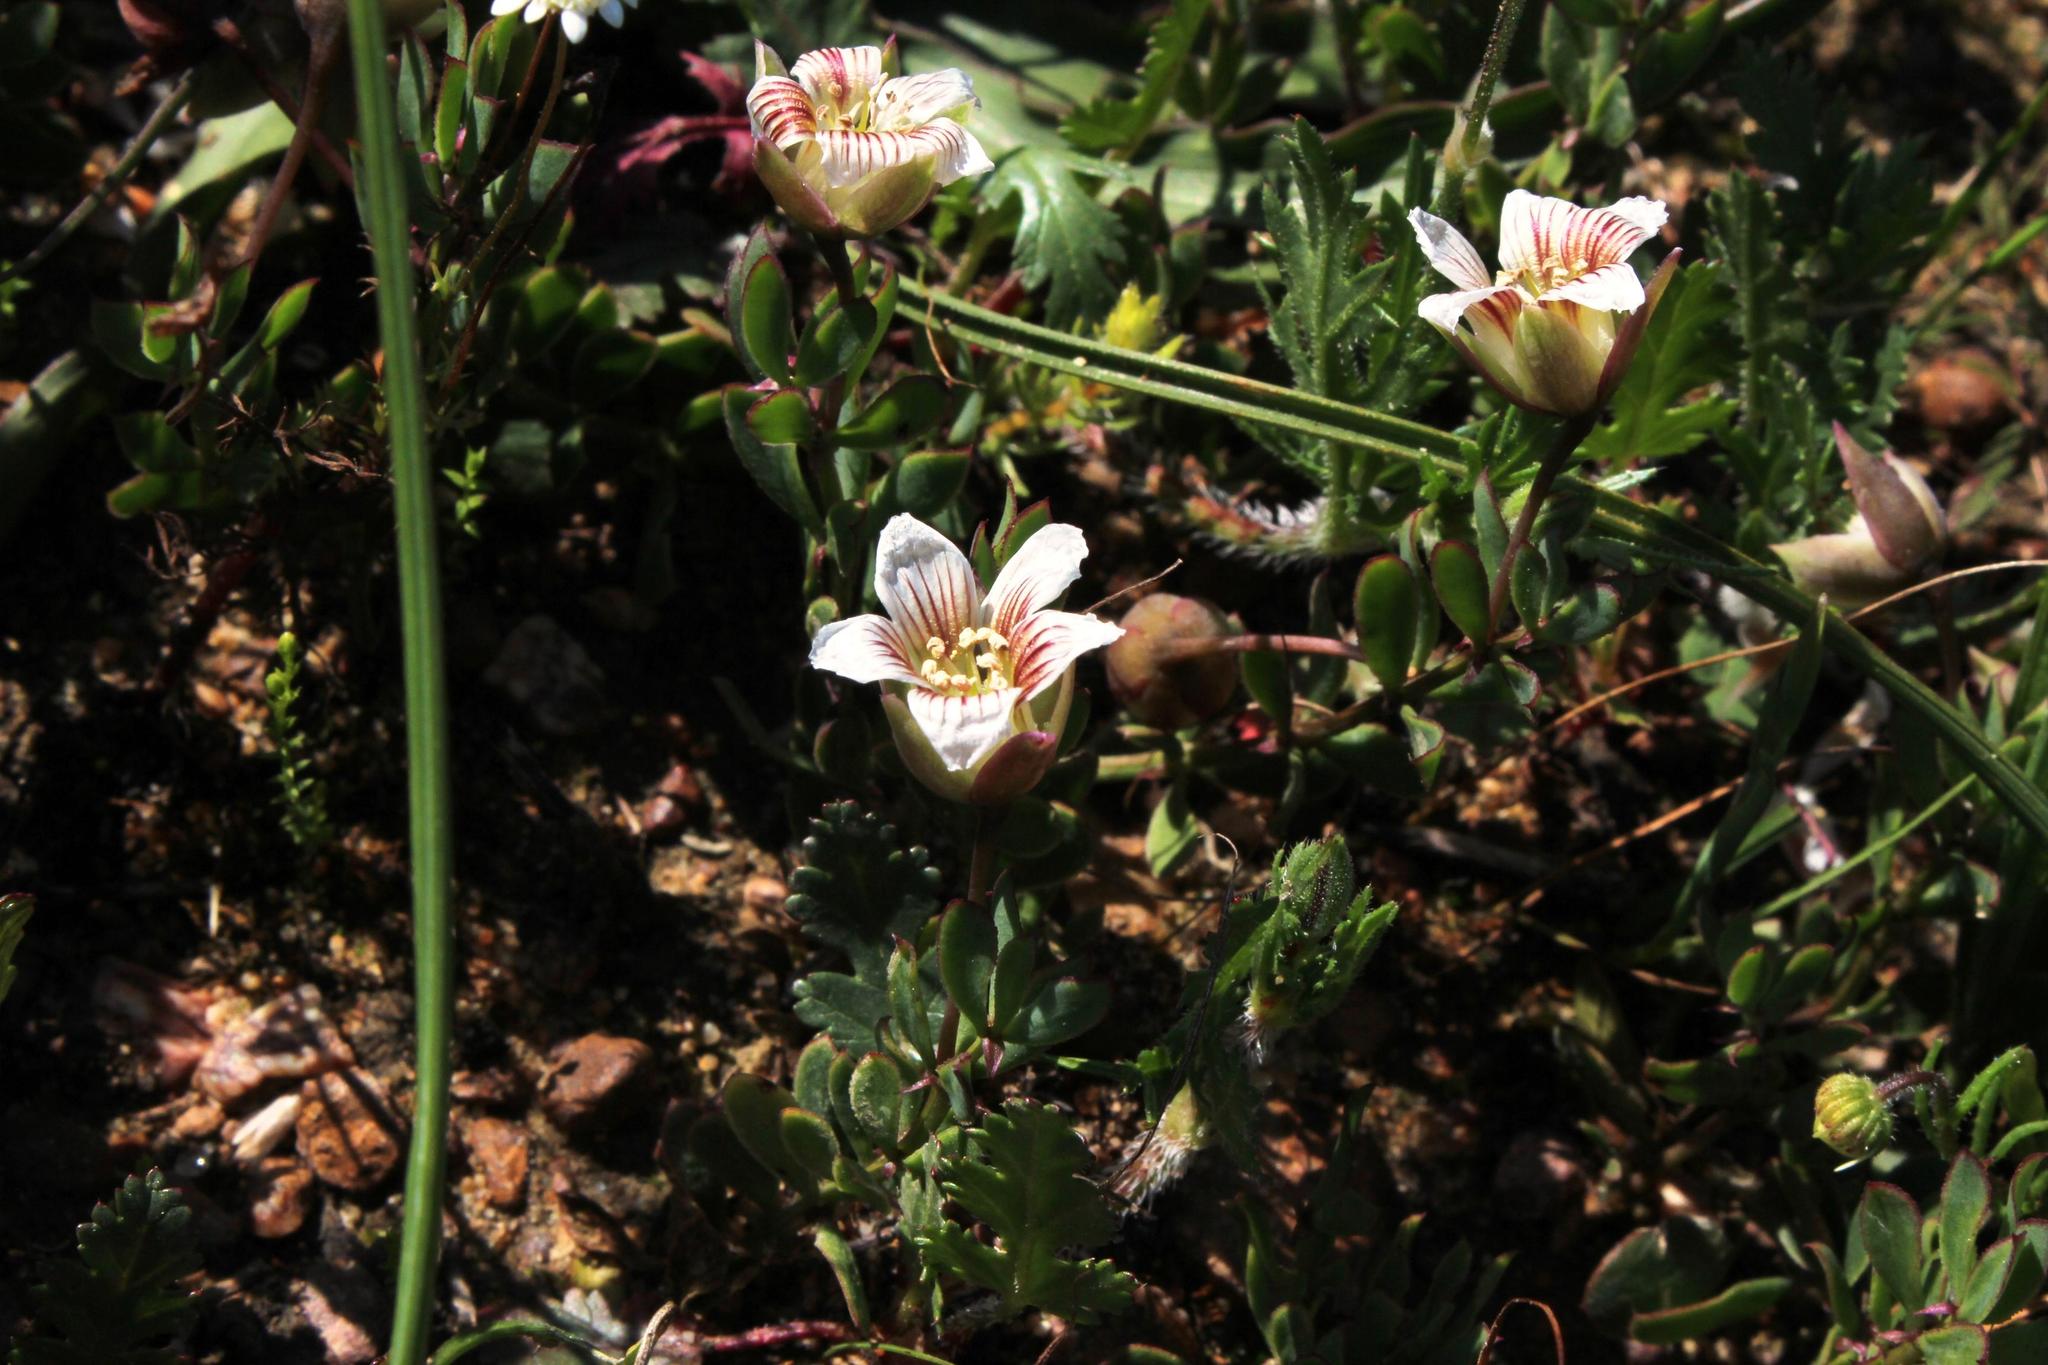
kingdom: Plantae
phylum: Tracheophyta
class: Magnoliopsida
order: Zygophyllales
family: Zygophyllaceae
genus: Roepera
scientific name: Roepera sessilifolia
